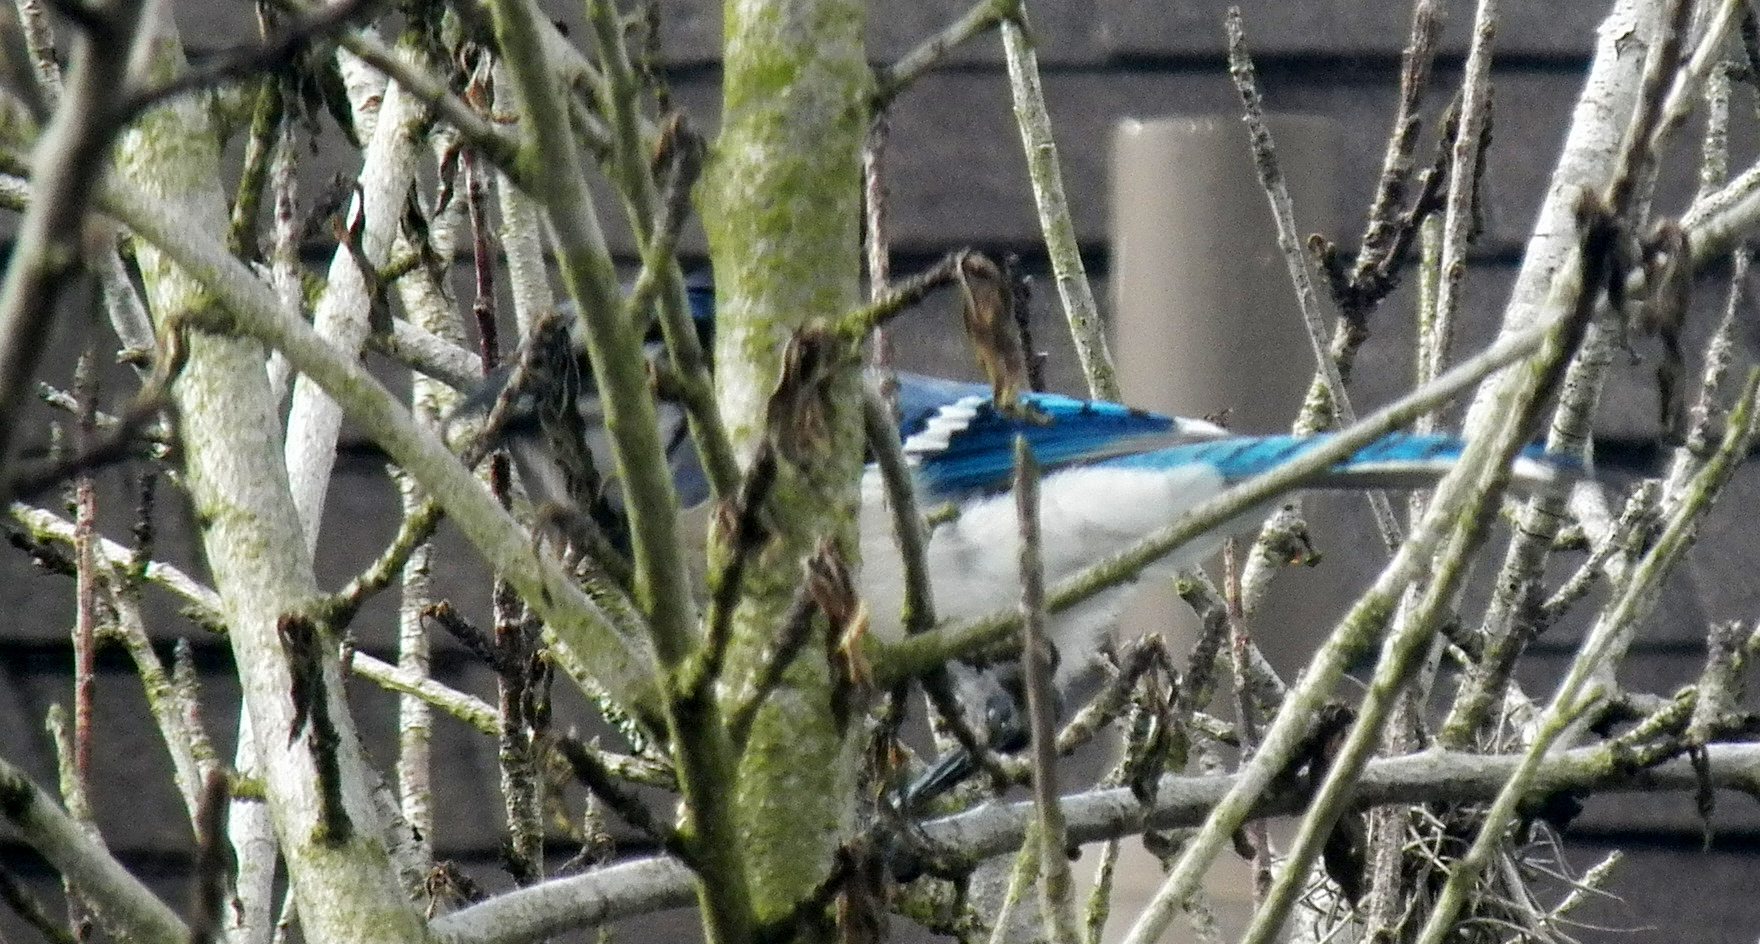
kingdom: Animalia
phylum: Chordata
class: Aves
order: Passeriformes
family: Corvidae
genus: Cyanocitta
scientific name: Cyanocitta cristata
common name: Blue jay
